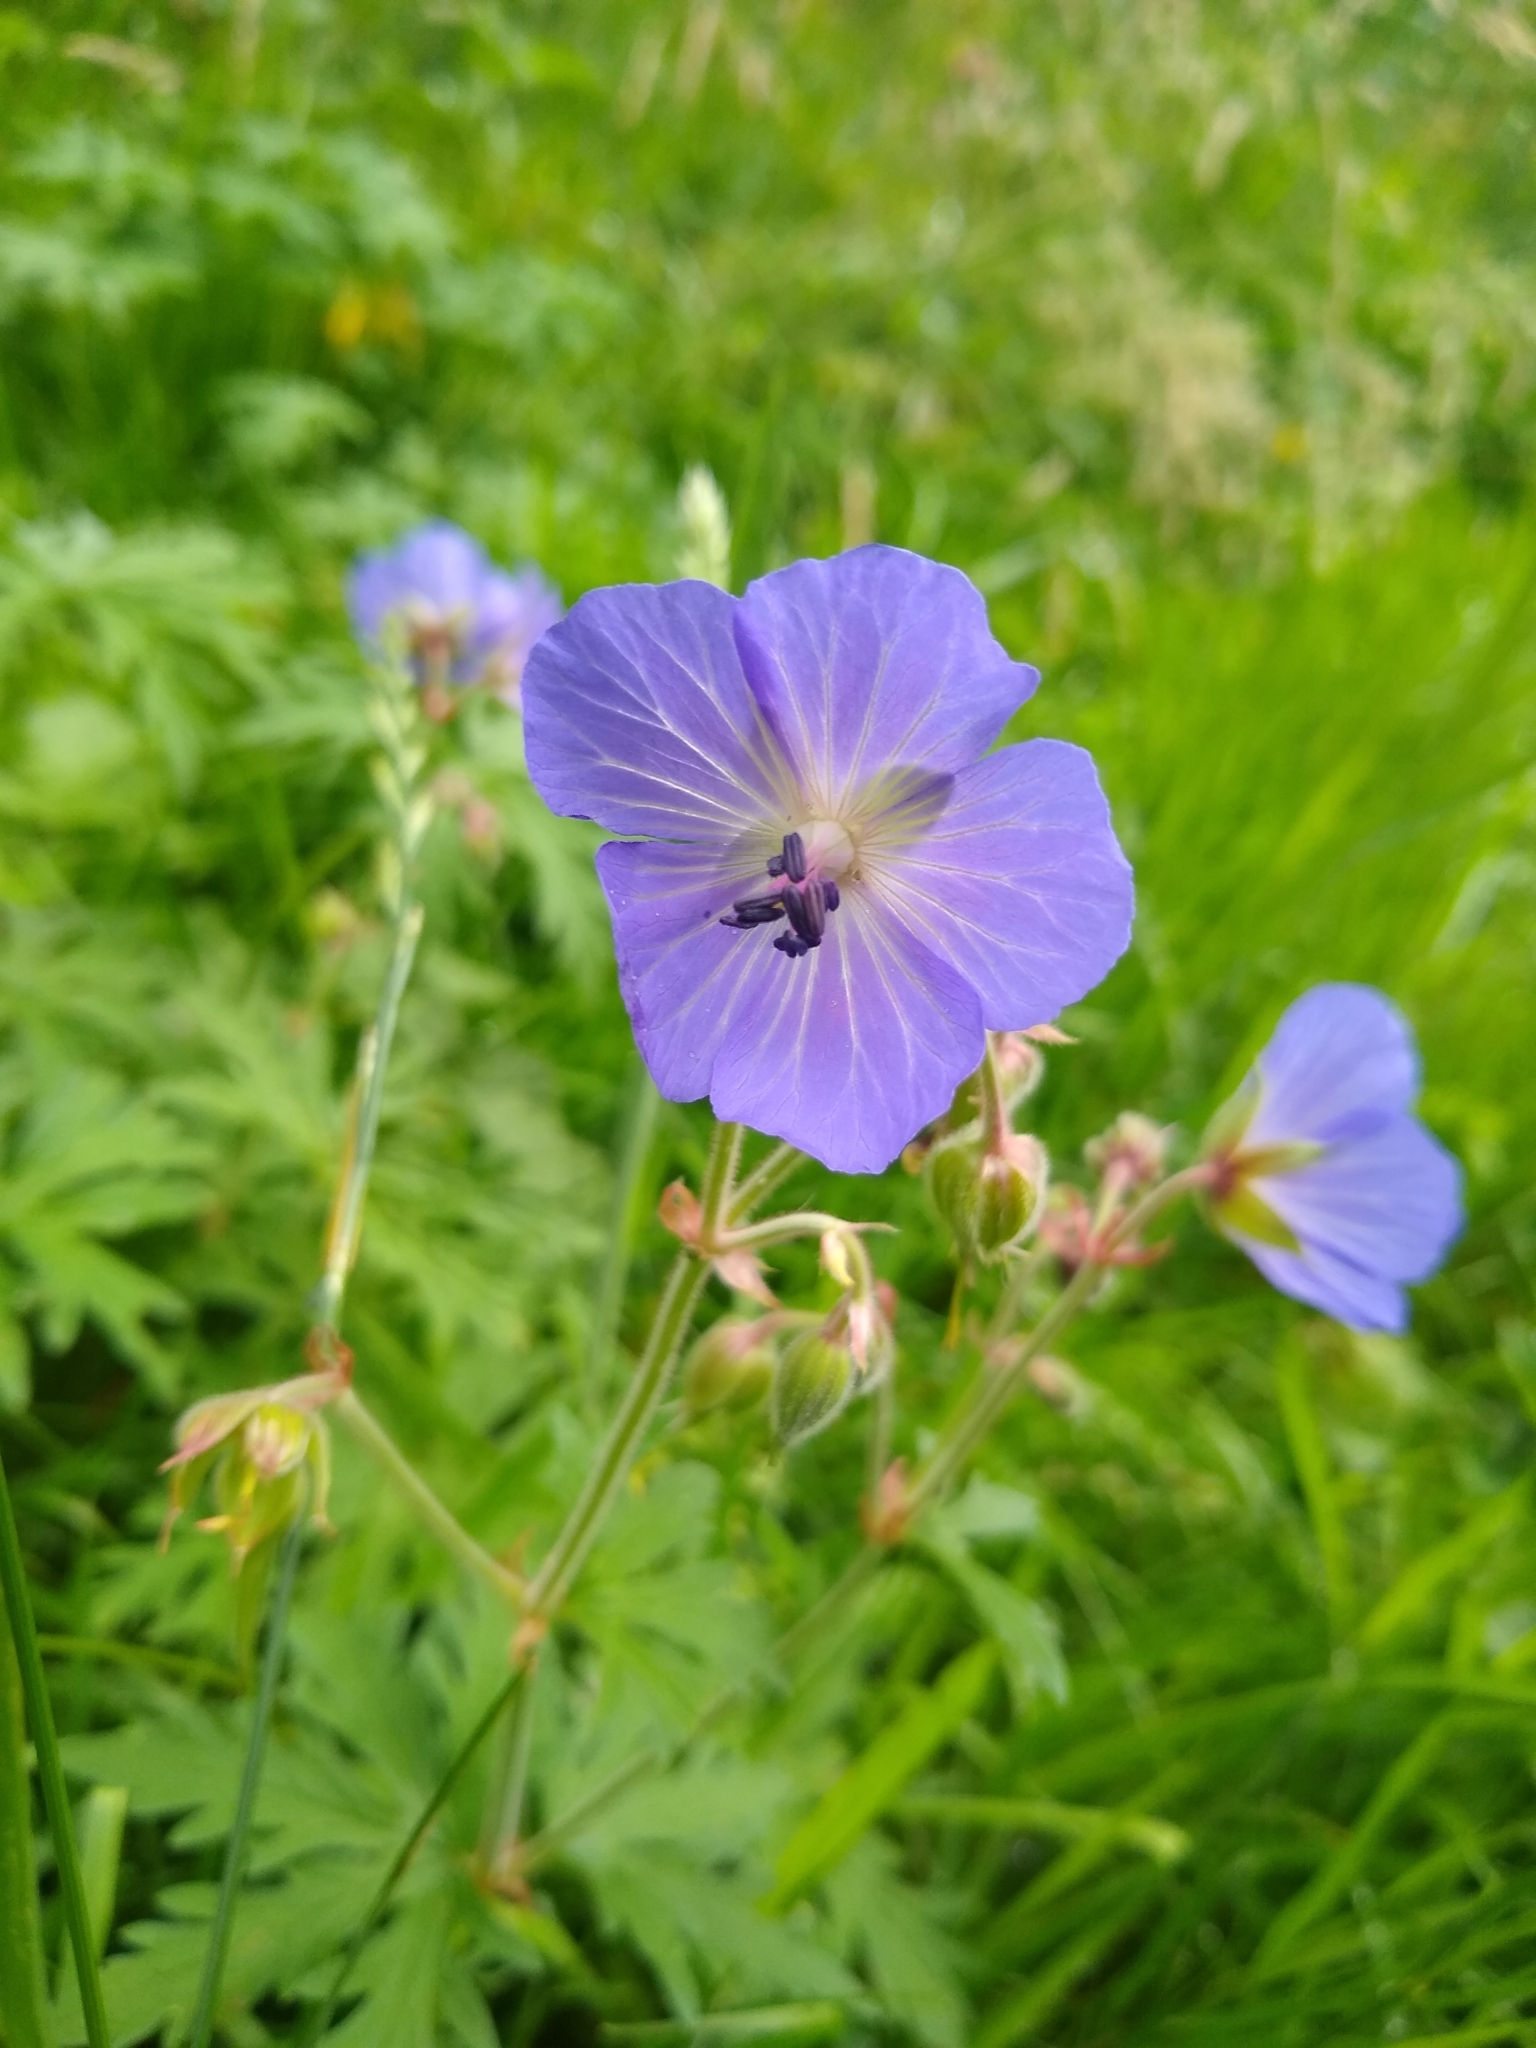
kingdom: Plantae
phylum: Tracheophyta
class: Magnoliopsida
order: Geraniales
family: Geraniaceae
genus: Geranium
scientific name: Geranium pratense
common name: Meadow crane's-bill
